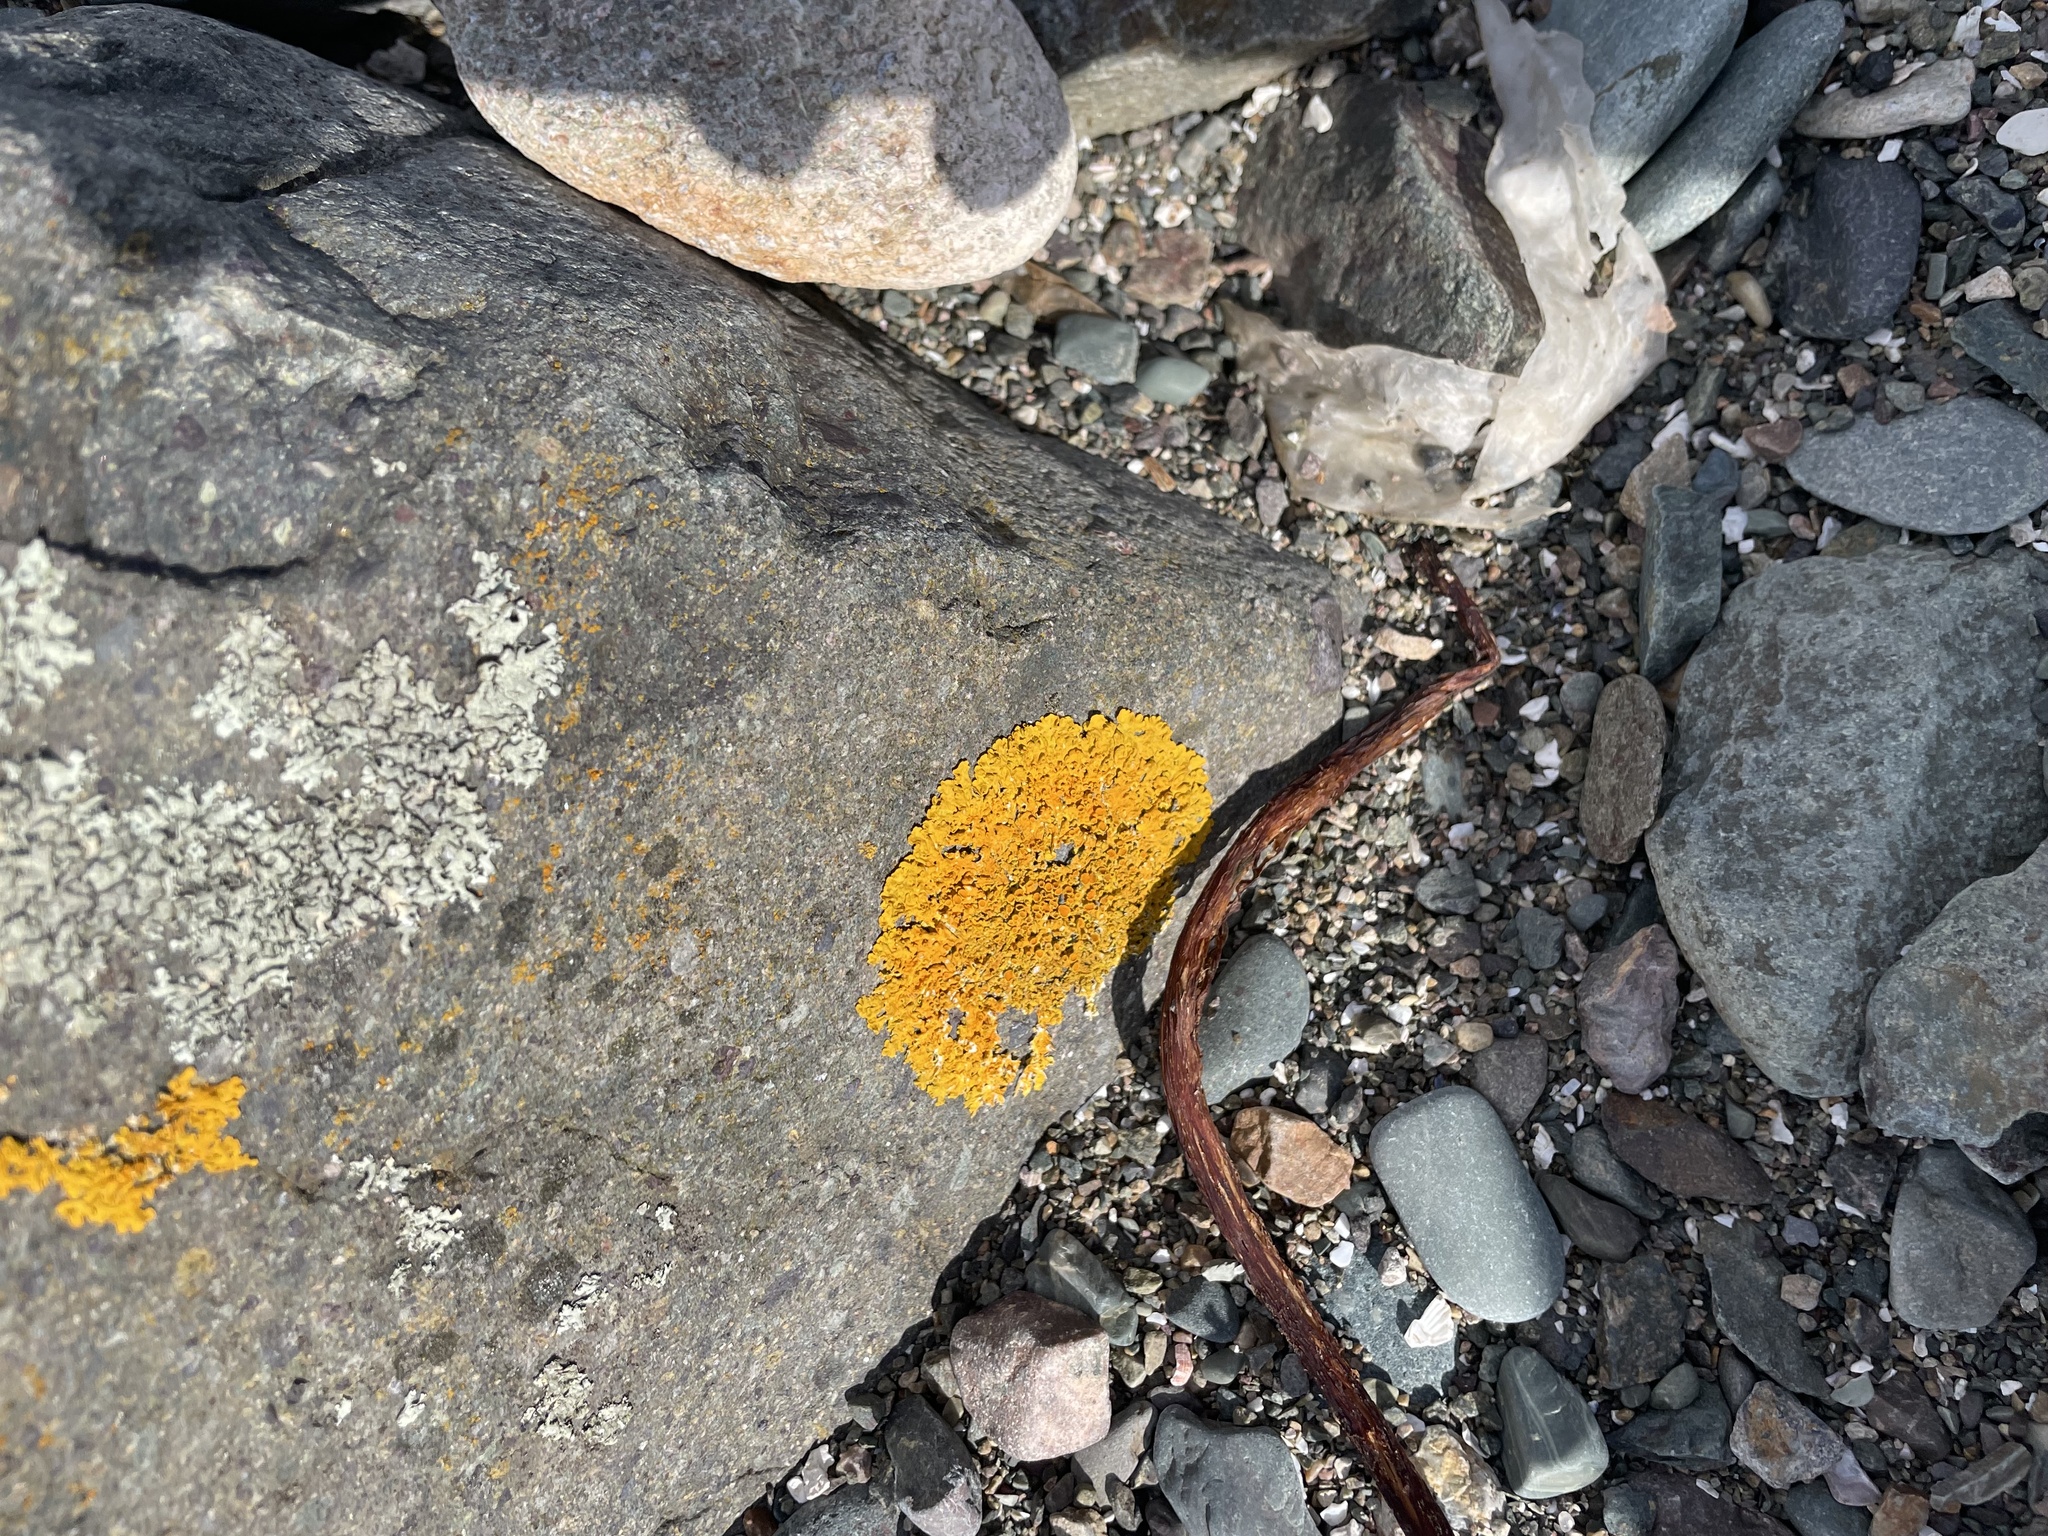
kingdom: Fungi
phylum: Ascomycota
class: Lecanoromycetes
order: Teloschistales
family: Teloschistaceae
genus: Xanthoria
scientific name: Xanthoria parietina
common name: Common orange lichen
